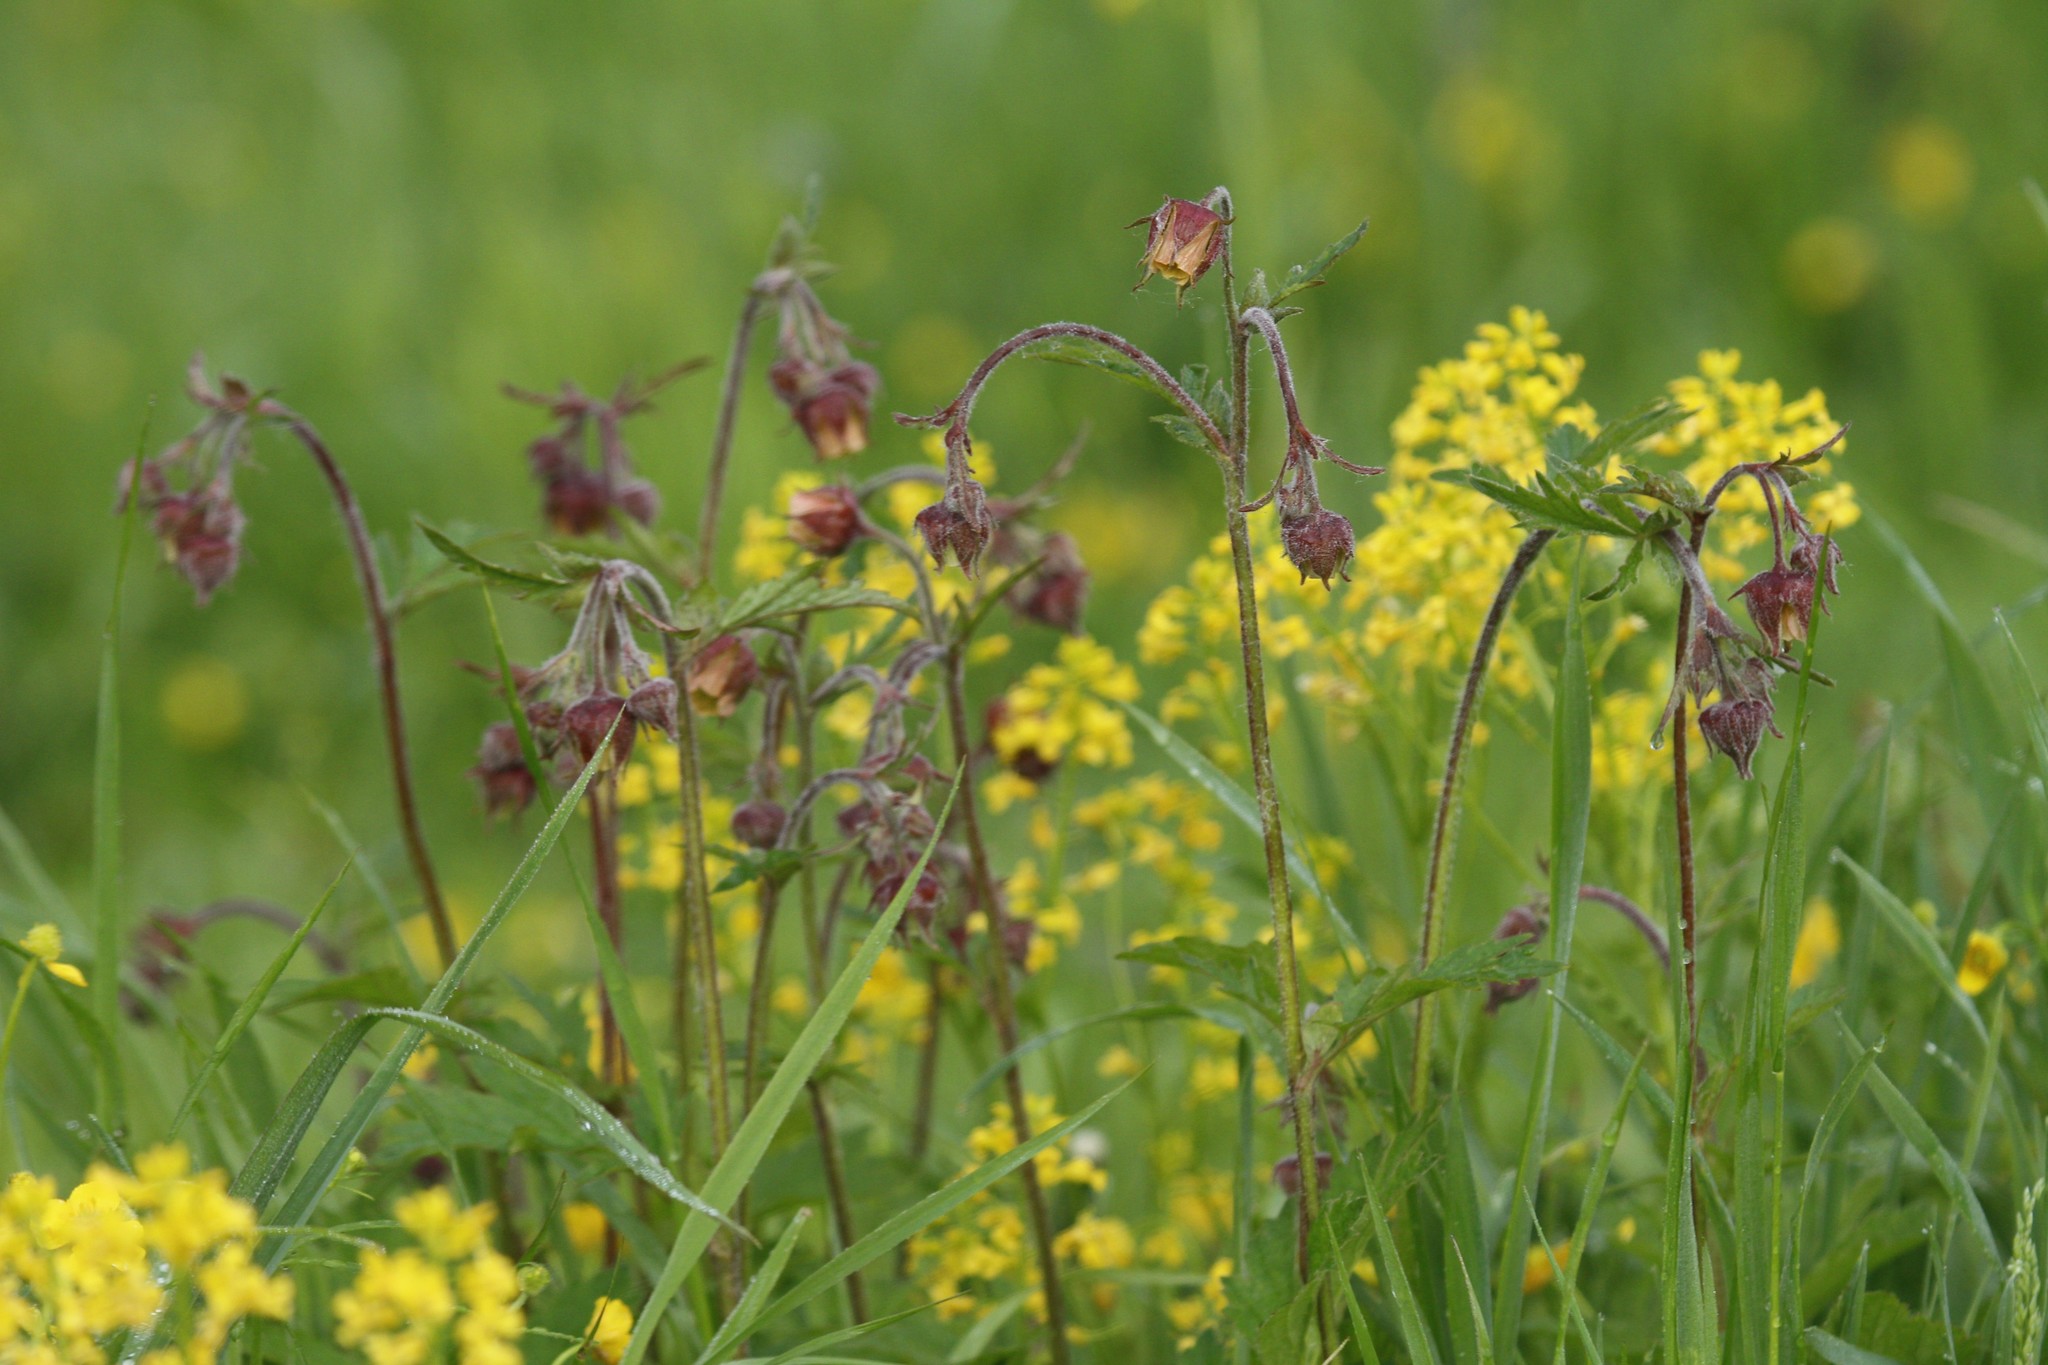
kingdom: Plantae
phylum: Tracheophyta
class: Magnoliopsida
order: Rosales
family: Rosaceae
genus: Geum
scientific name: Geum rivale
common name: Water avens
